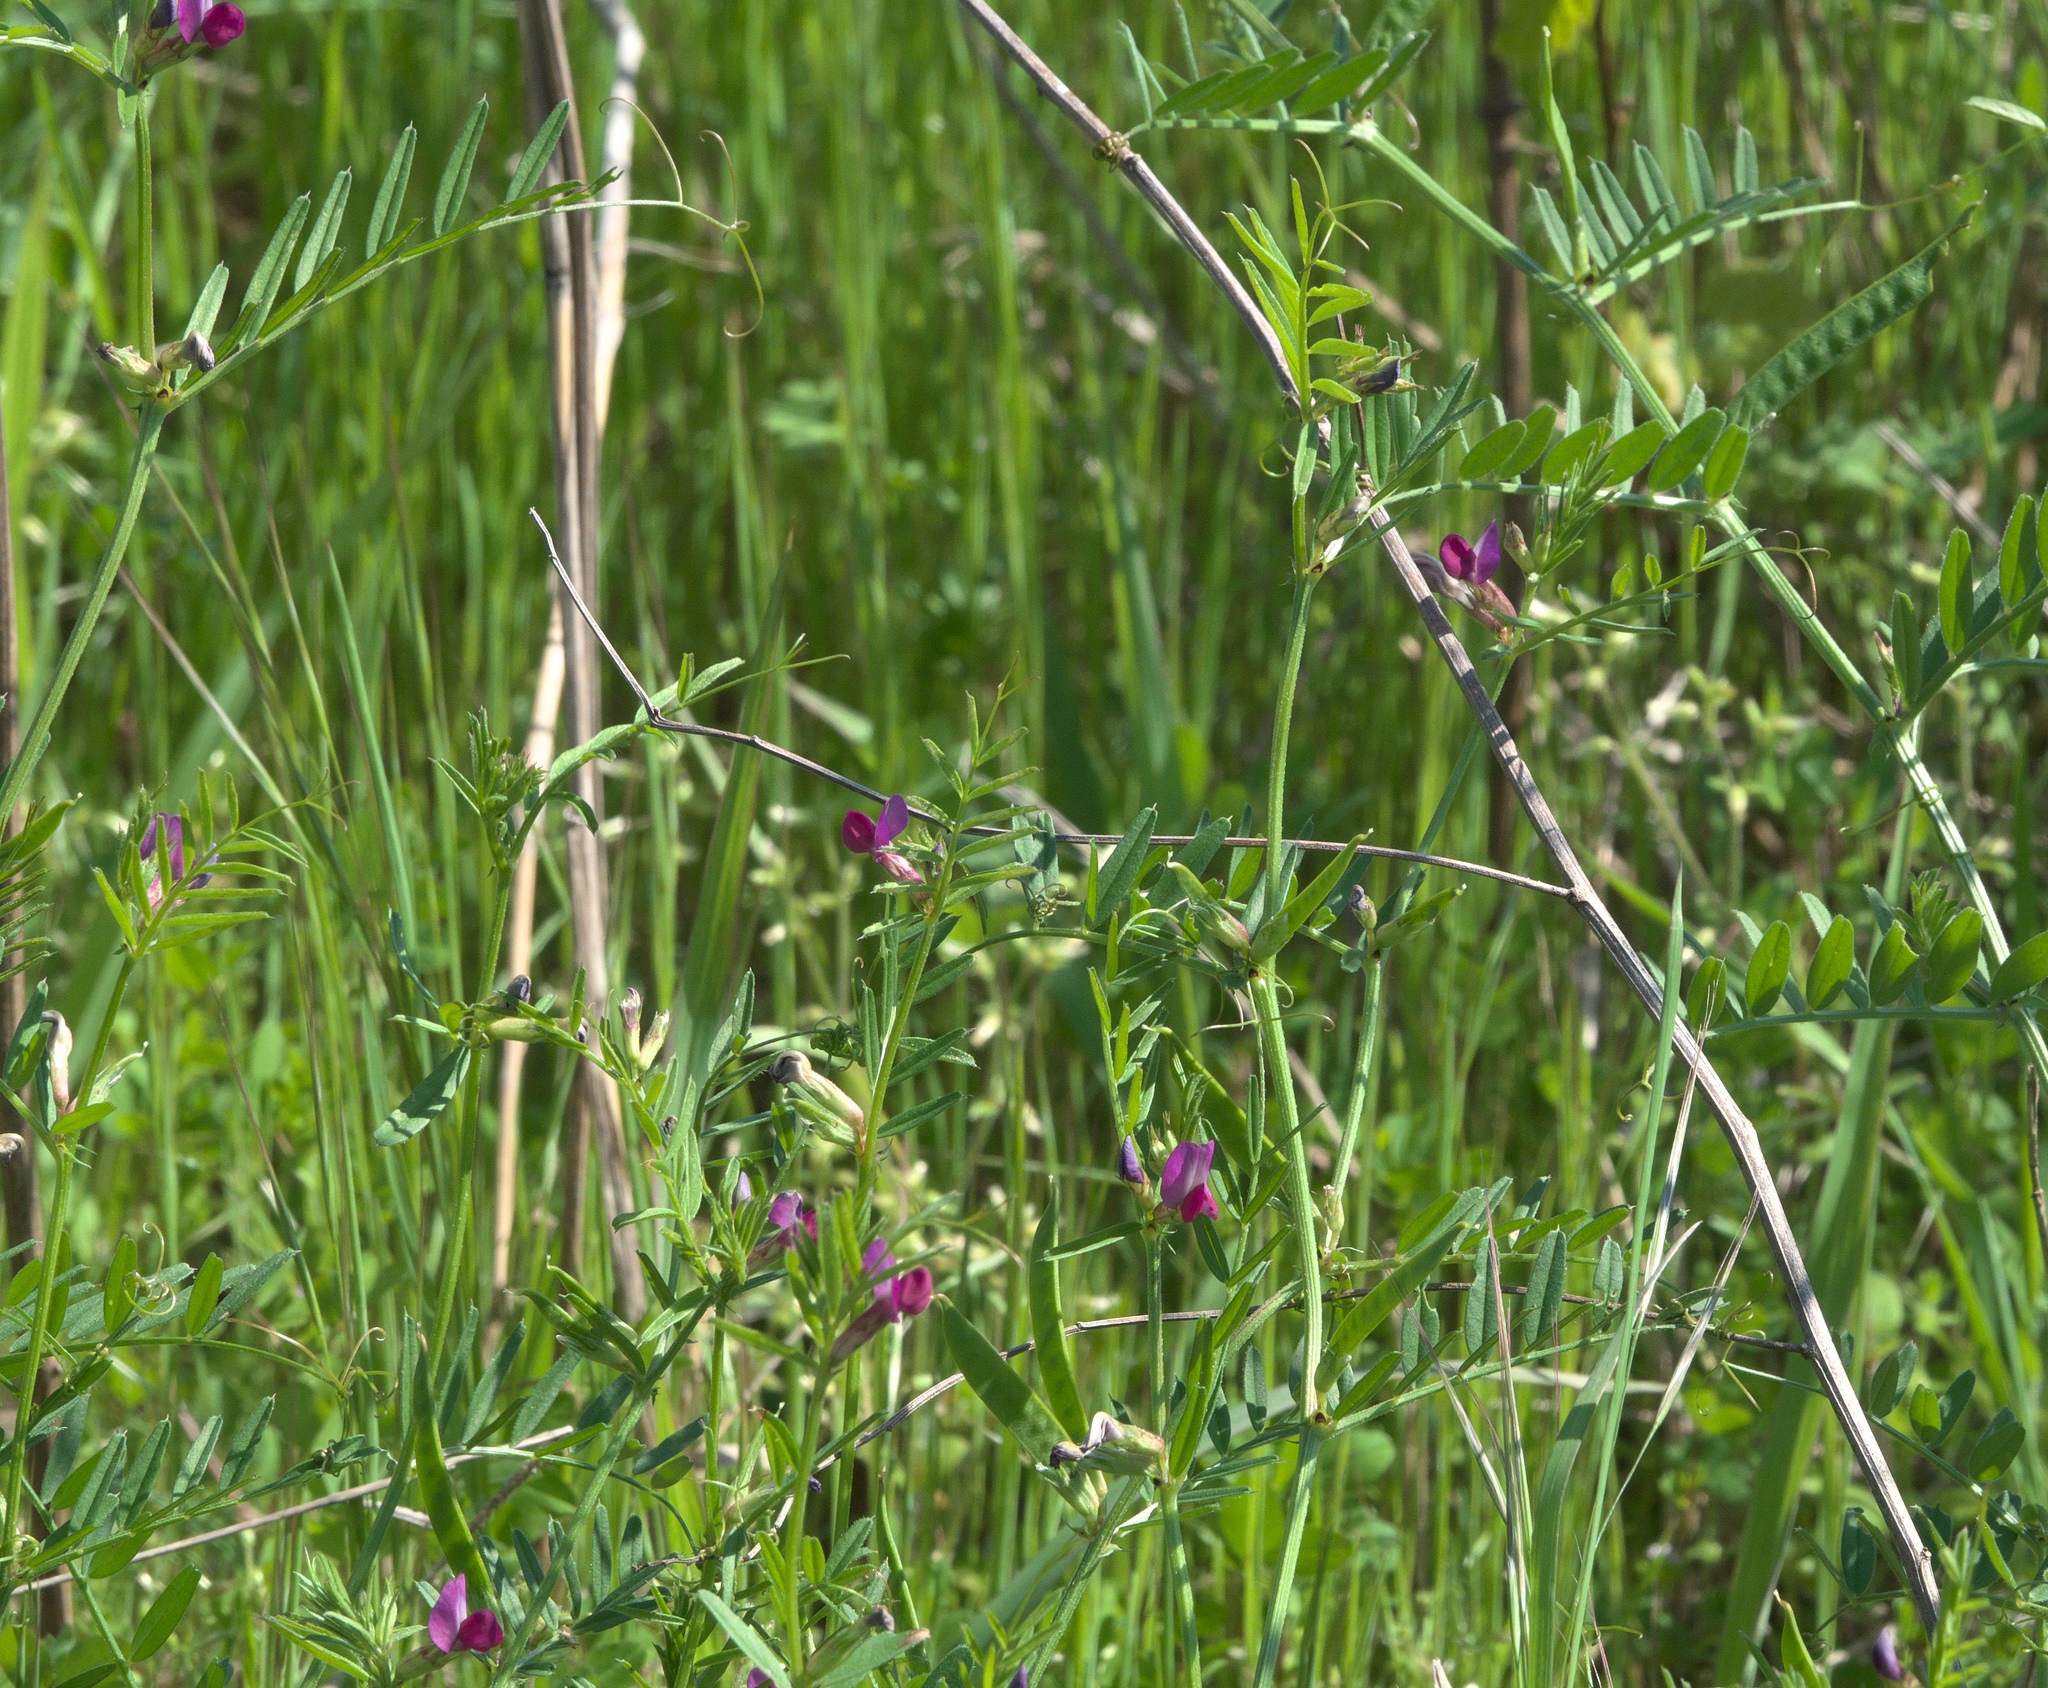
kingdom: Plantae
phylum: Tracheophyta
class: Magnoliopsida
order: Fabales
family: Fabaceae
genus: Vicia
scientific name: Vicia sativa
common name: Garden vetch
